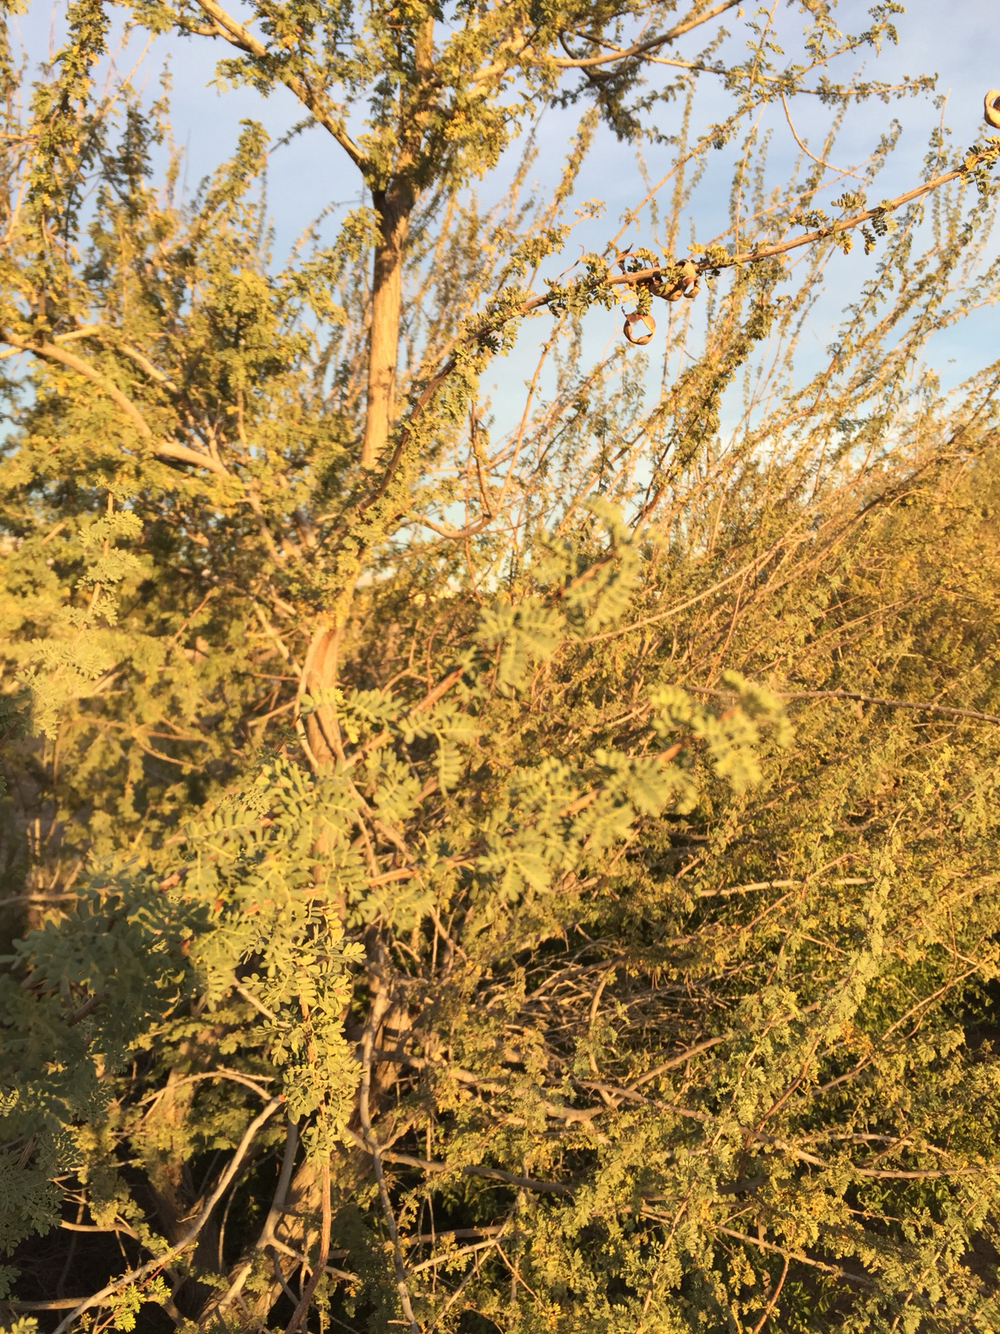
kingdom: Plantae
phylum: Tracheophyta
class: Magnoliopsida
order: Fabales
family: Fabaceae
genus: Senegalia
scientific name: Senegalia greggii
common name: Texas-mimosa
